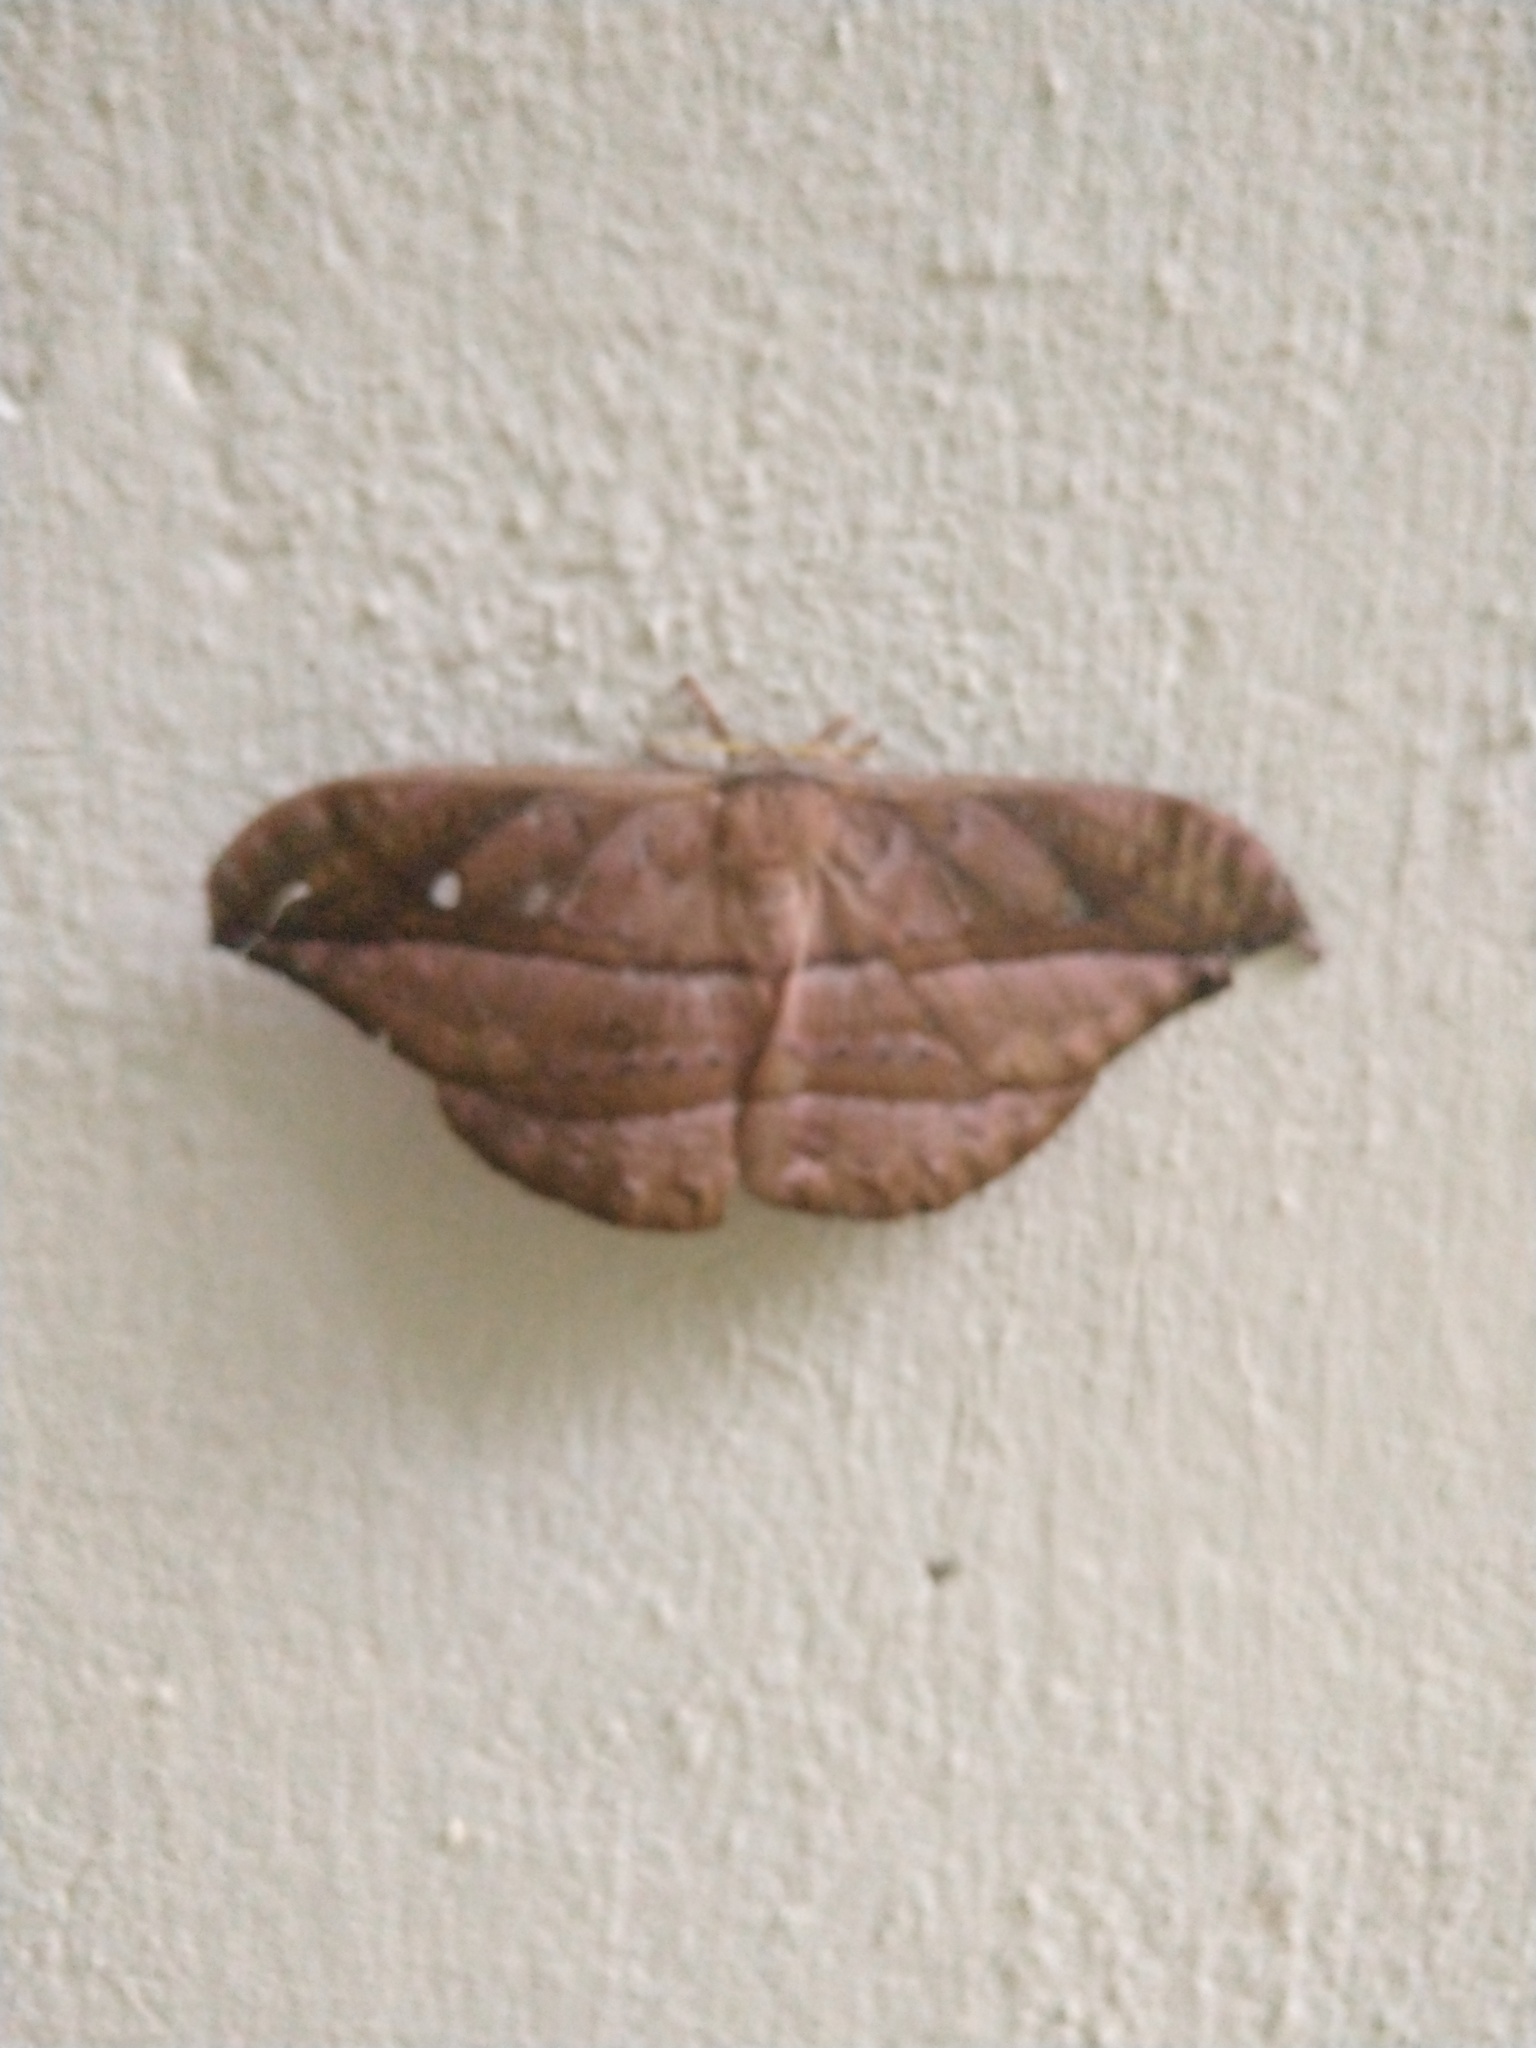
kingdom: Animalia
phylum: Arthropoda
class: Insecta
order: Lepidoptera
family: Saturniidae
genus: Copaxa
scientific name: Copaxa decrescens
